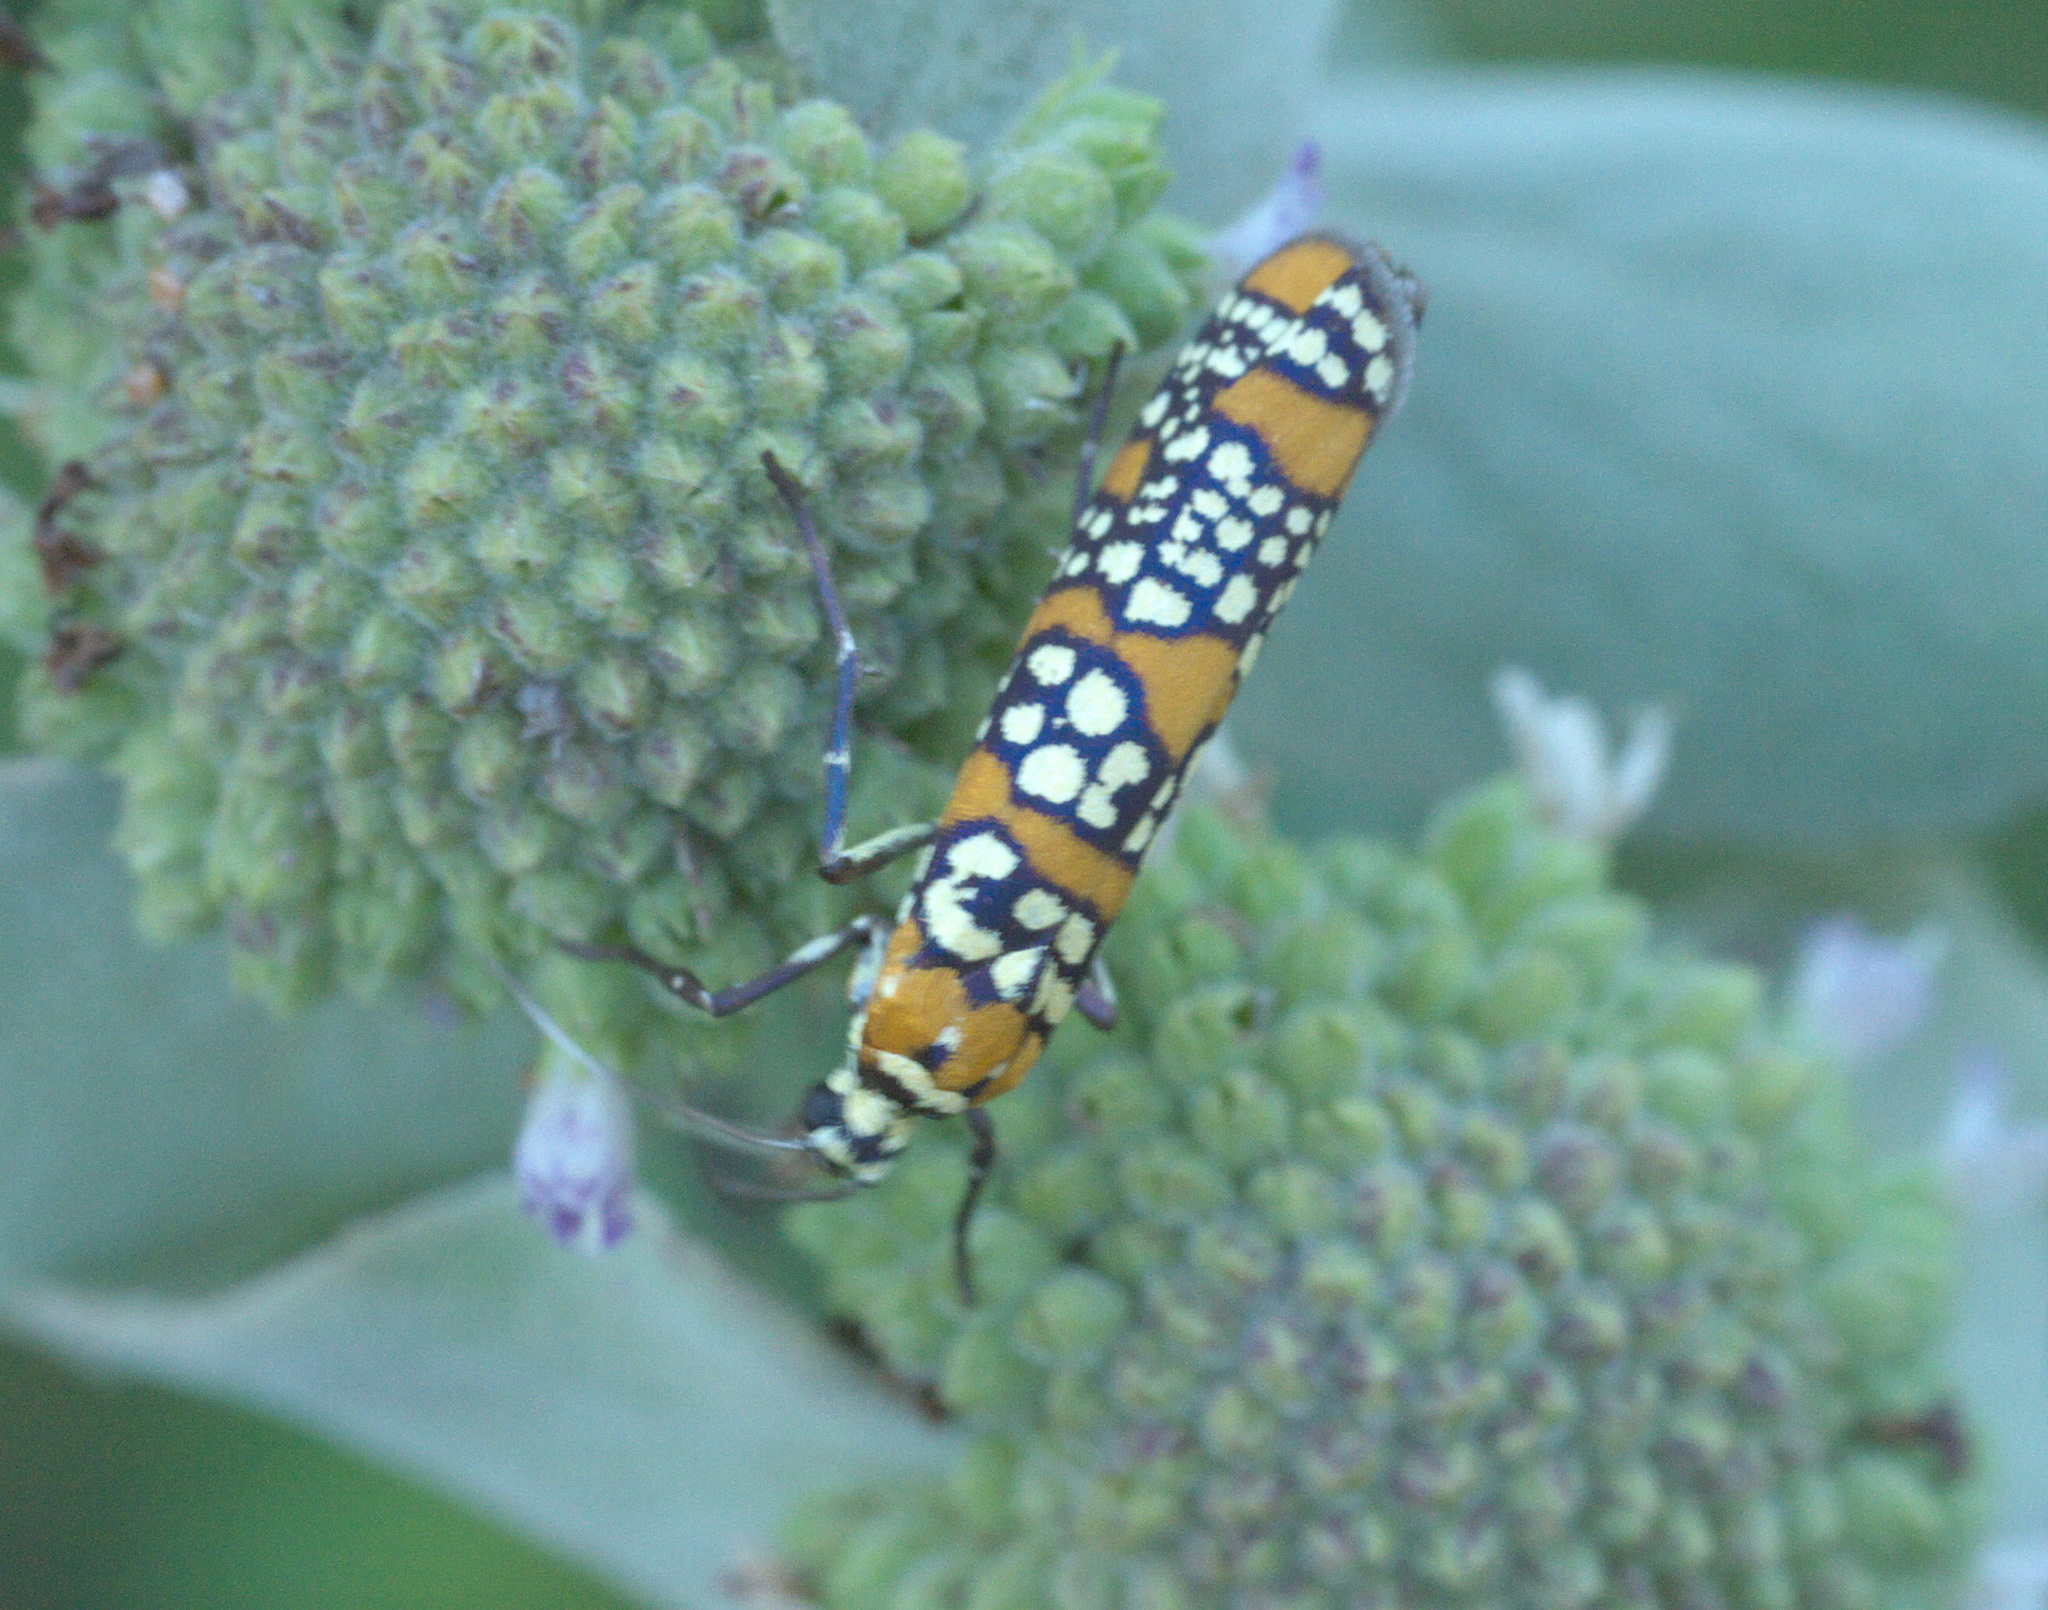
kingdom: Animalia
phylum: Arthropoda
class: Insecta
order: Lepidoptera
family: Attevidae
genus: Atteva
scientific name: Atteva punctella
